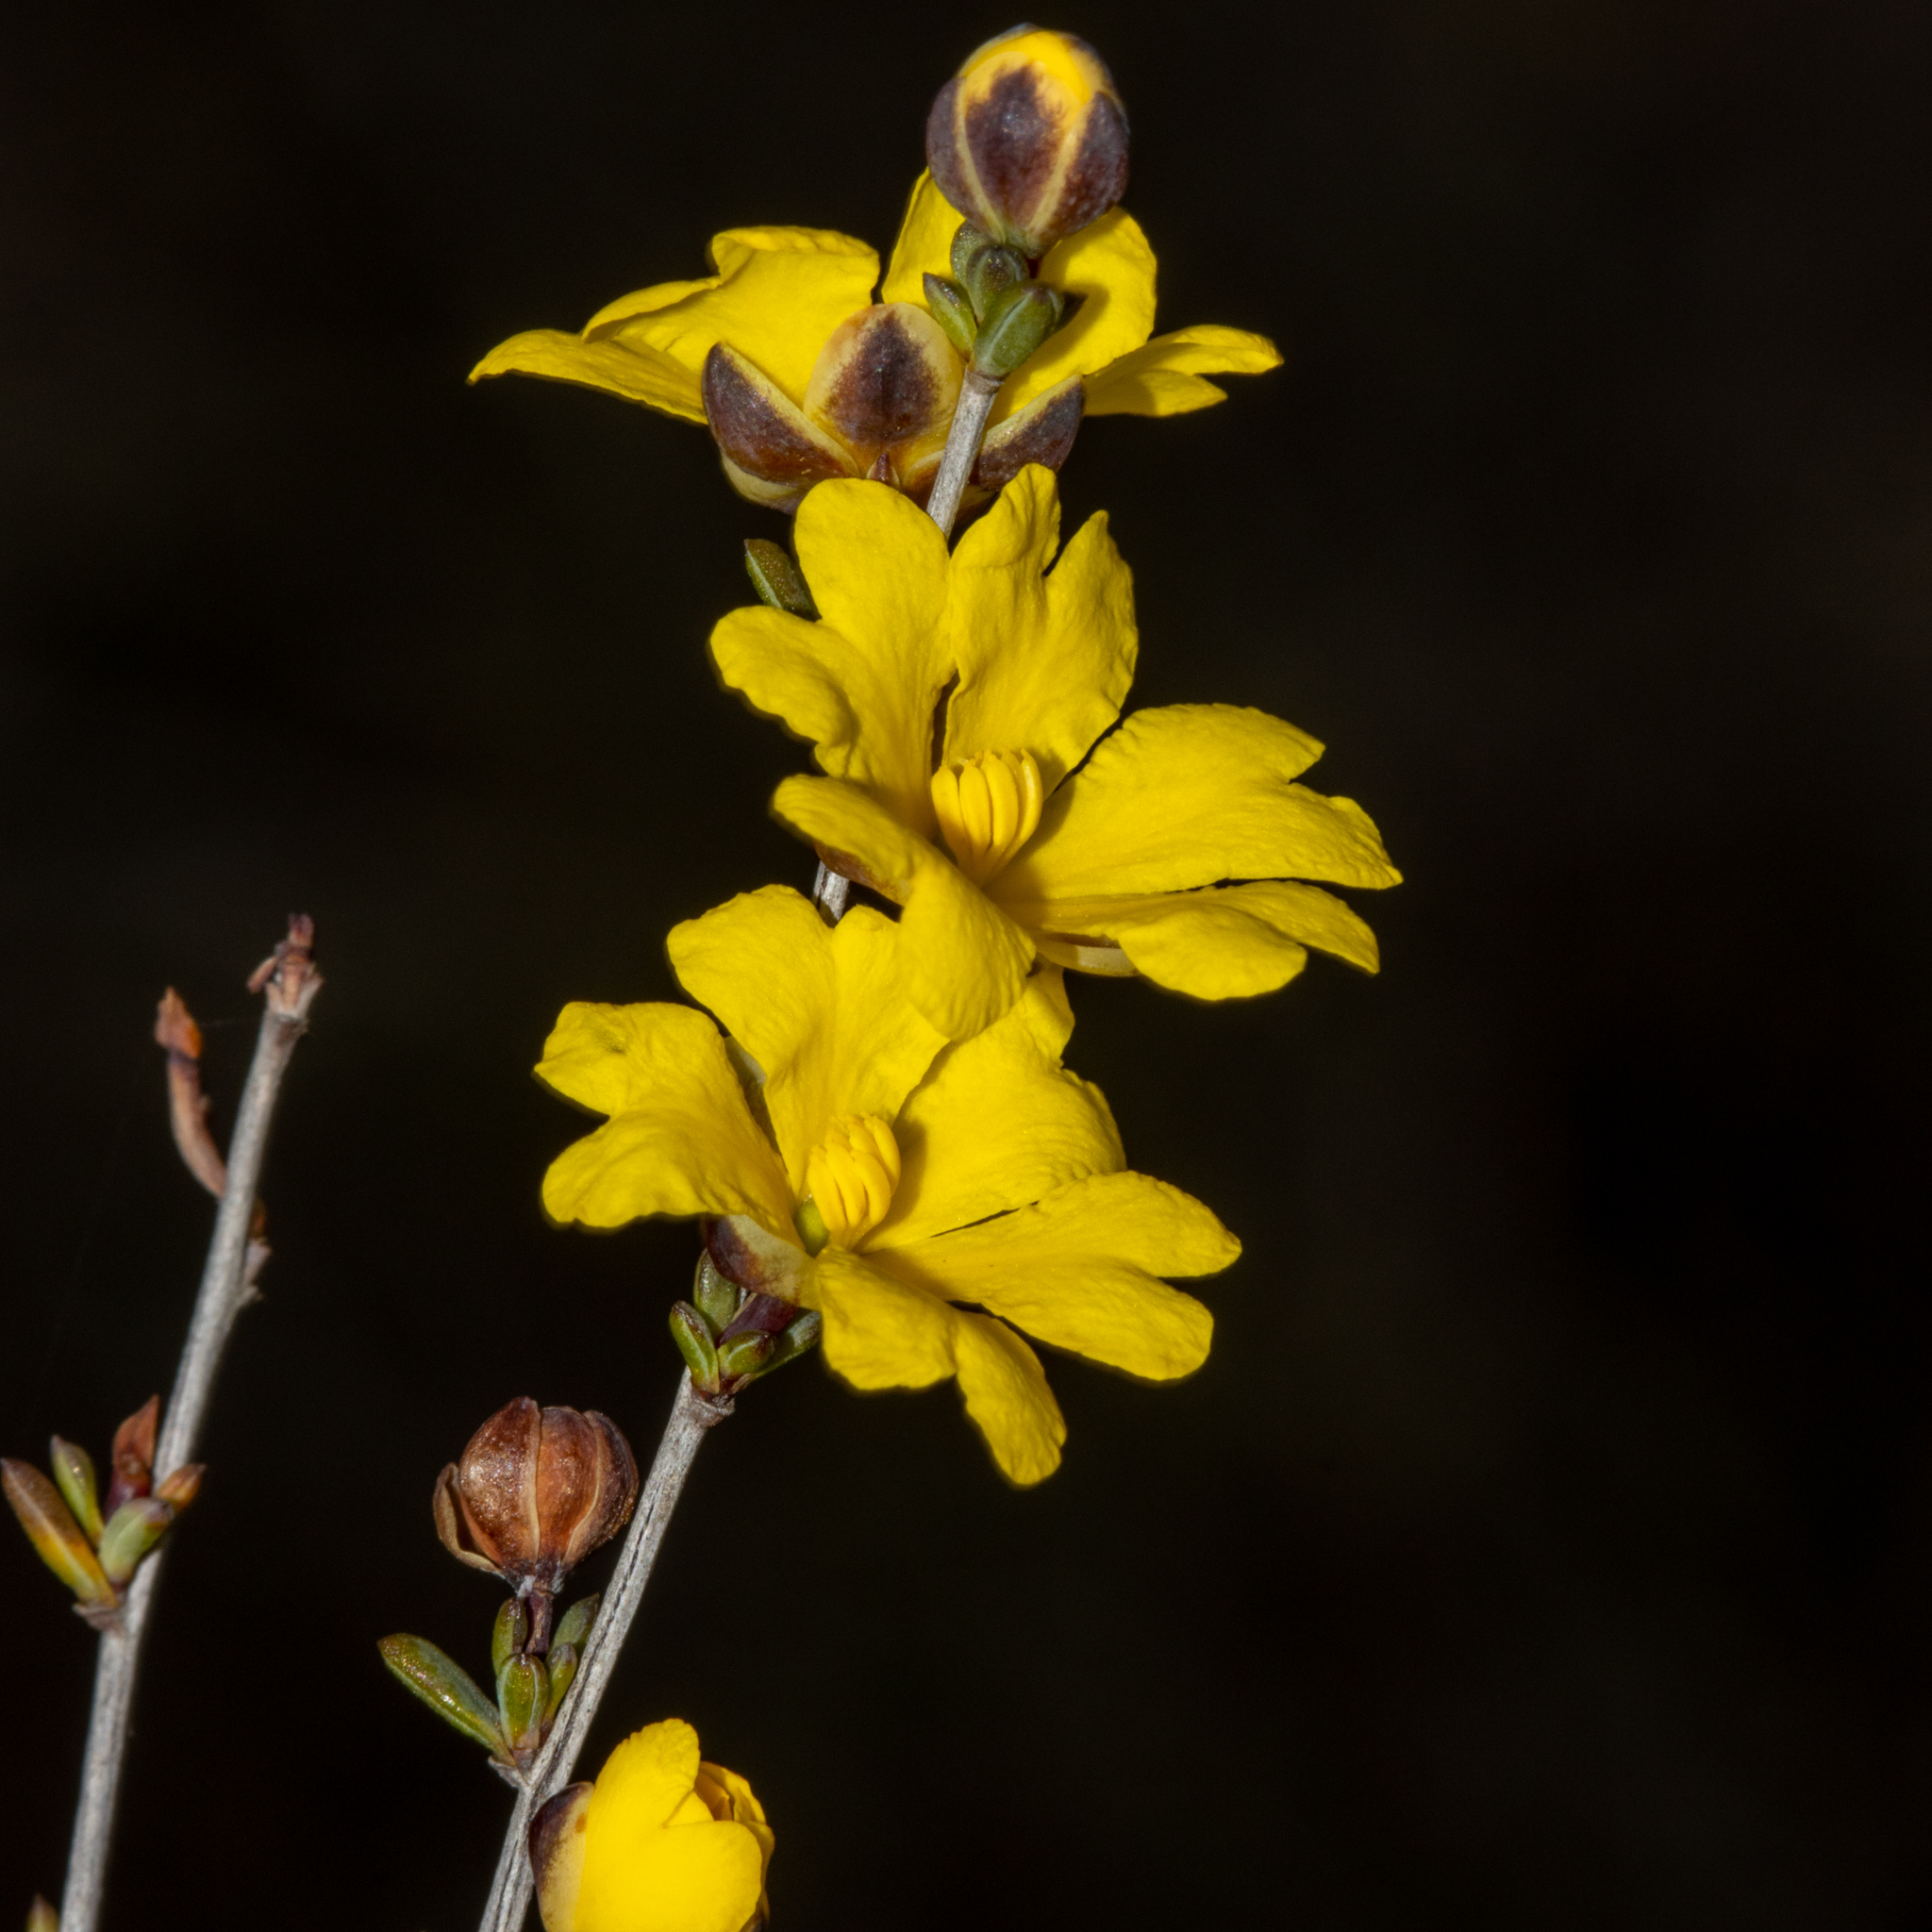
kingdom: Plantae
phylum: Tracheophyta
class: Magnoliopsida
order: Dilleniales
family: Dilleniaceae
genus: Hibbertia
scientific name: Hibbertia gracilipes
